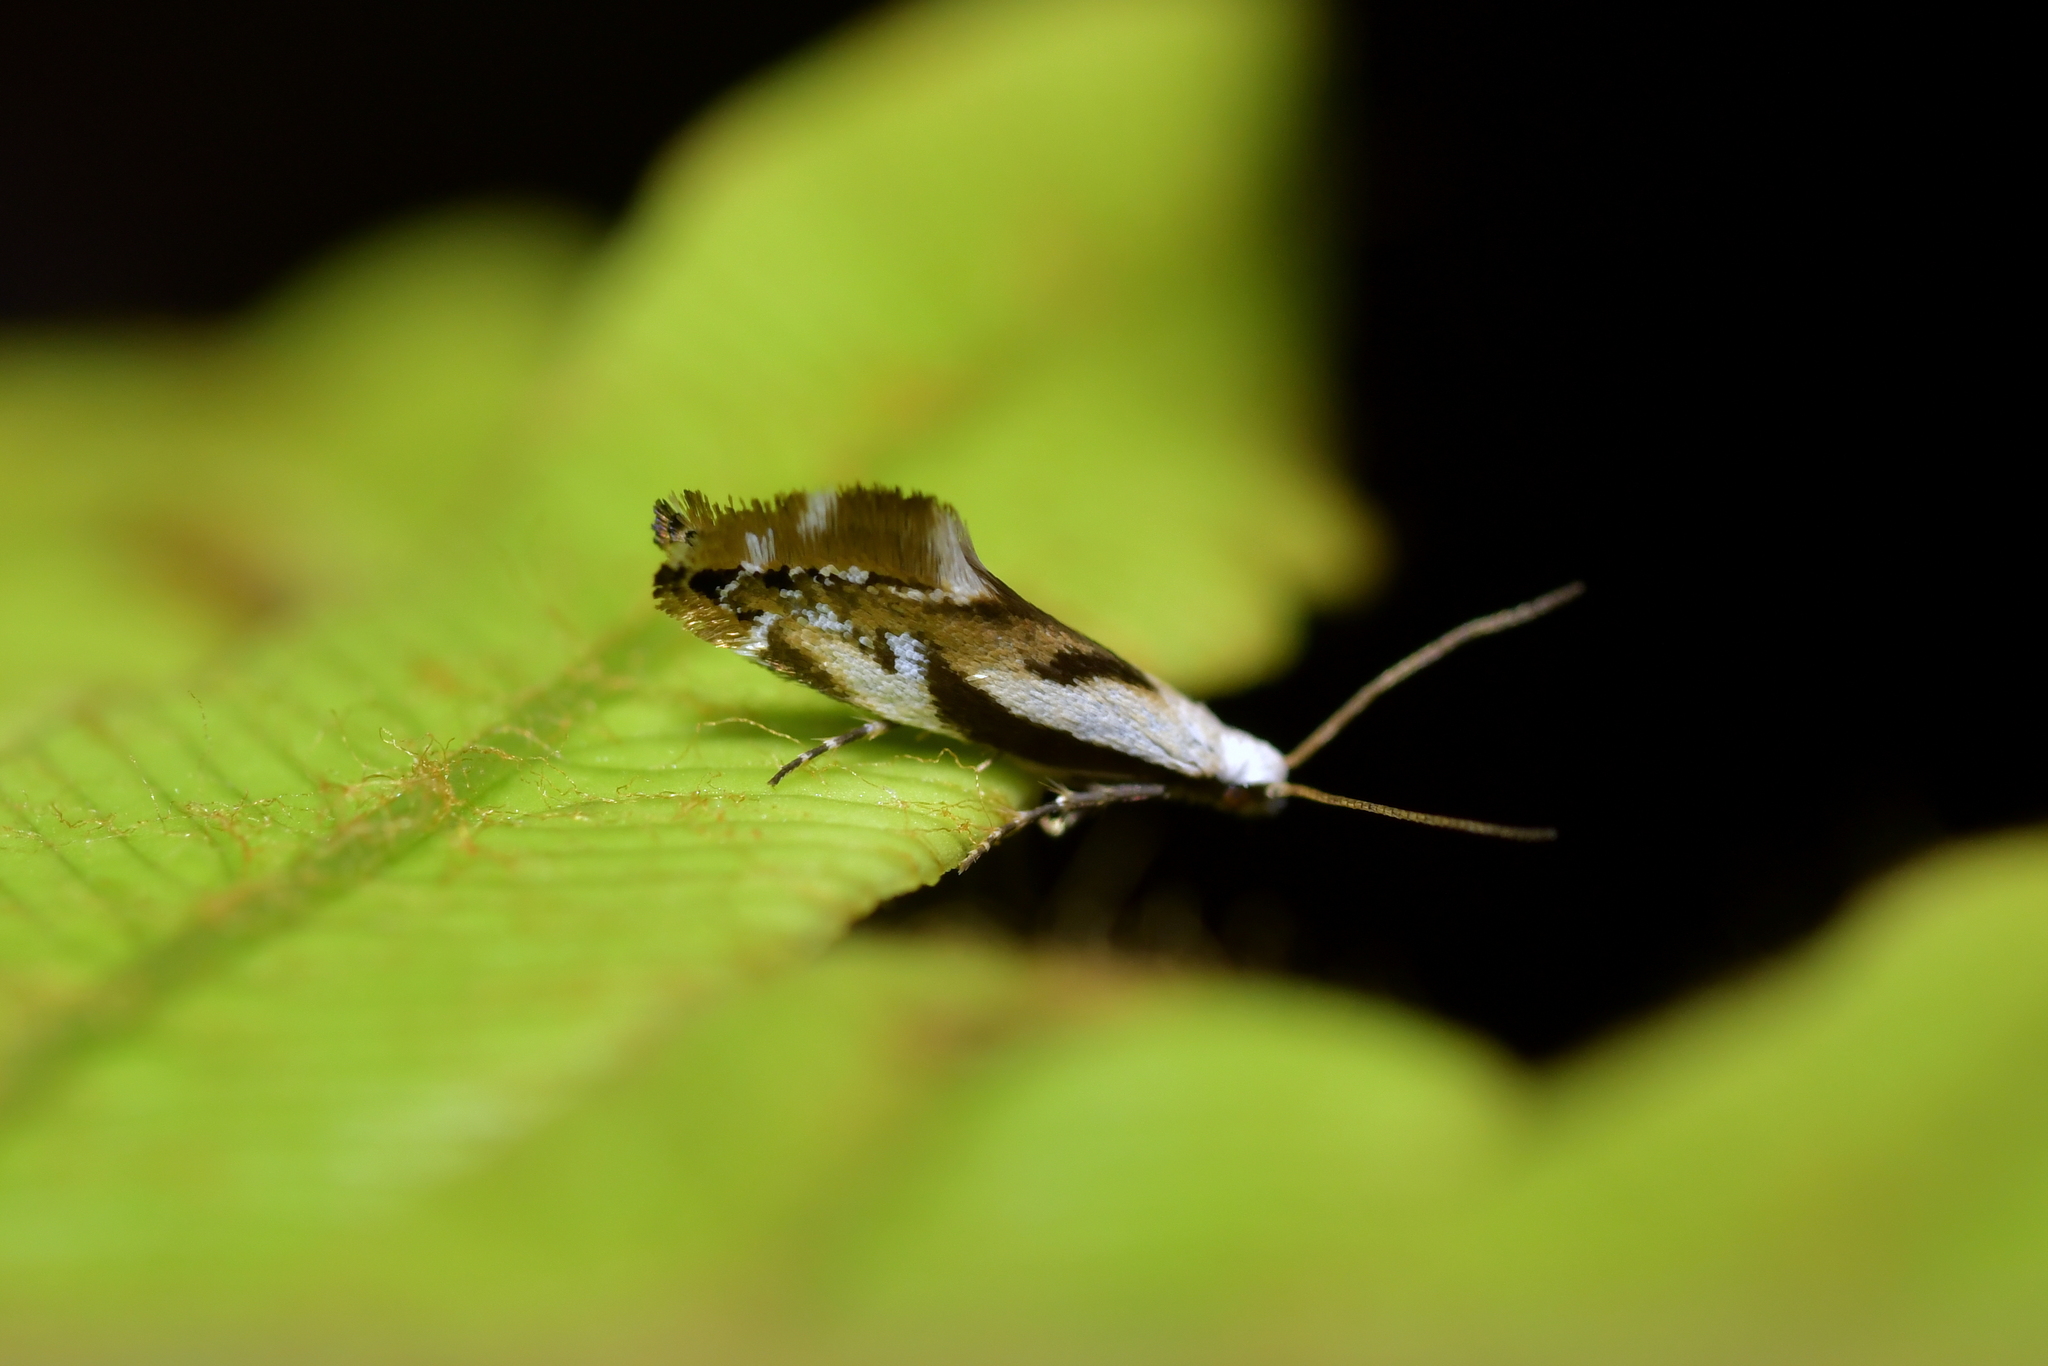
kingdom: Animalia
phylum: Arthropoda
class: Insecta
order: Lepidoptera
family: Mnesarchaeidae
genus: Mnesarchella
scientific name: Mnesarchella acuta
